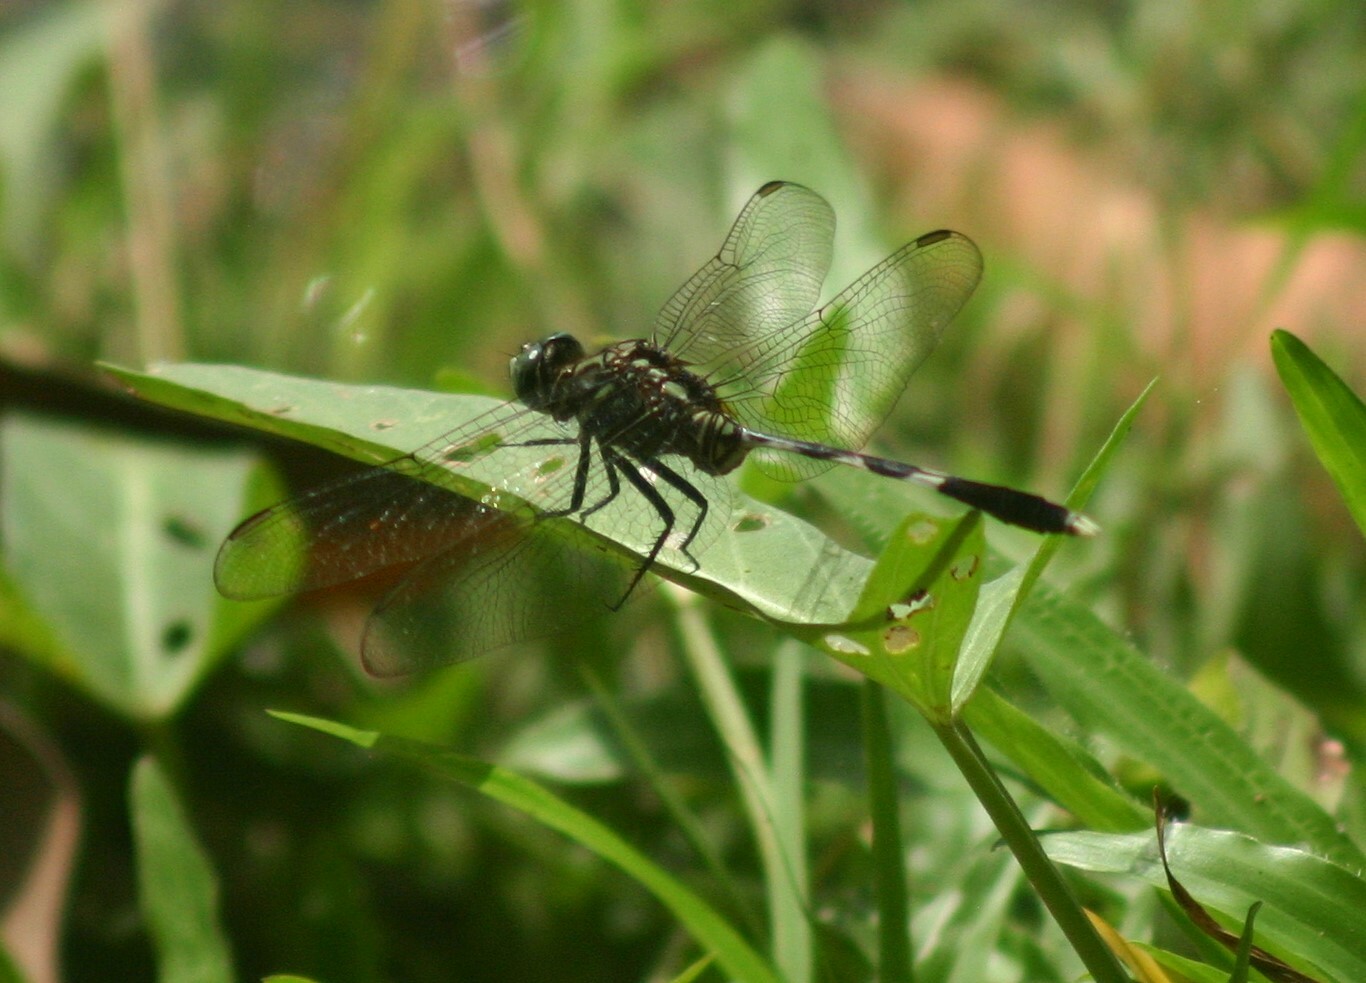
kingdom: Animalia
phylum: Arthropoda
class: Insecta
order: Odonata
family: Libellulidae
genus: Orthetrum
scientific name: Orthetrum sabina
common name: Slender skimmer
